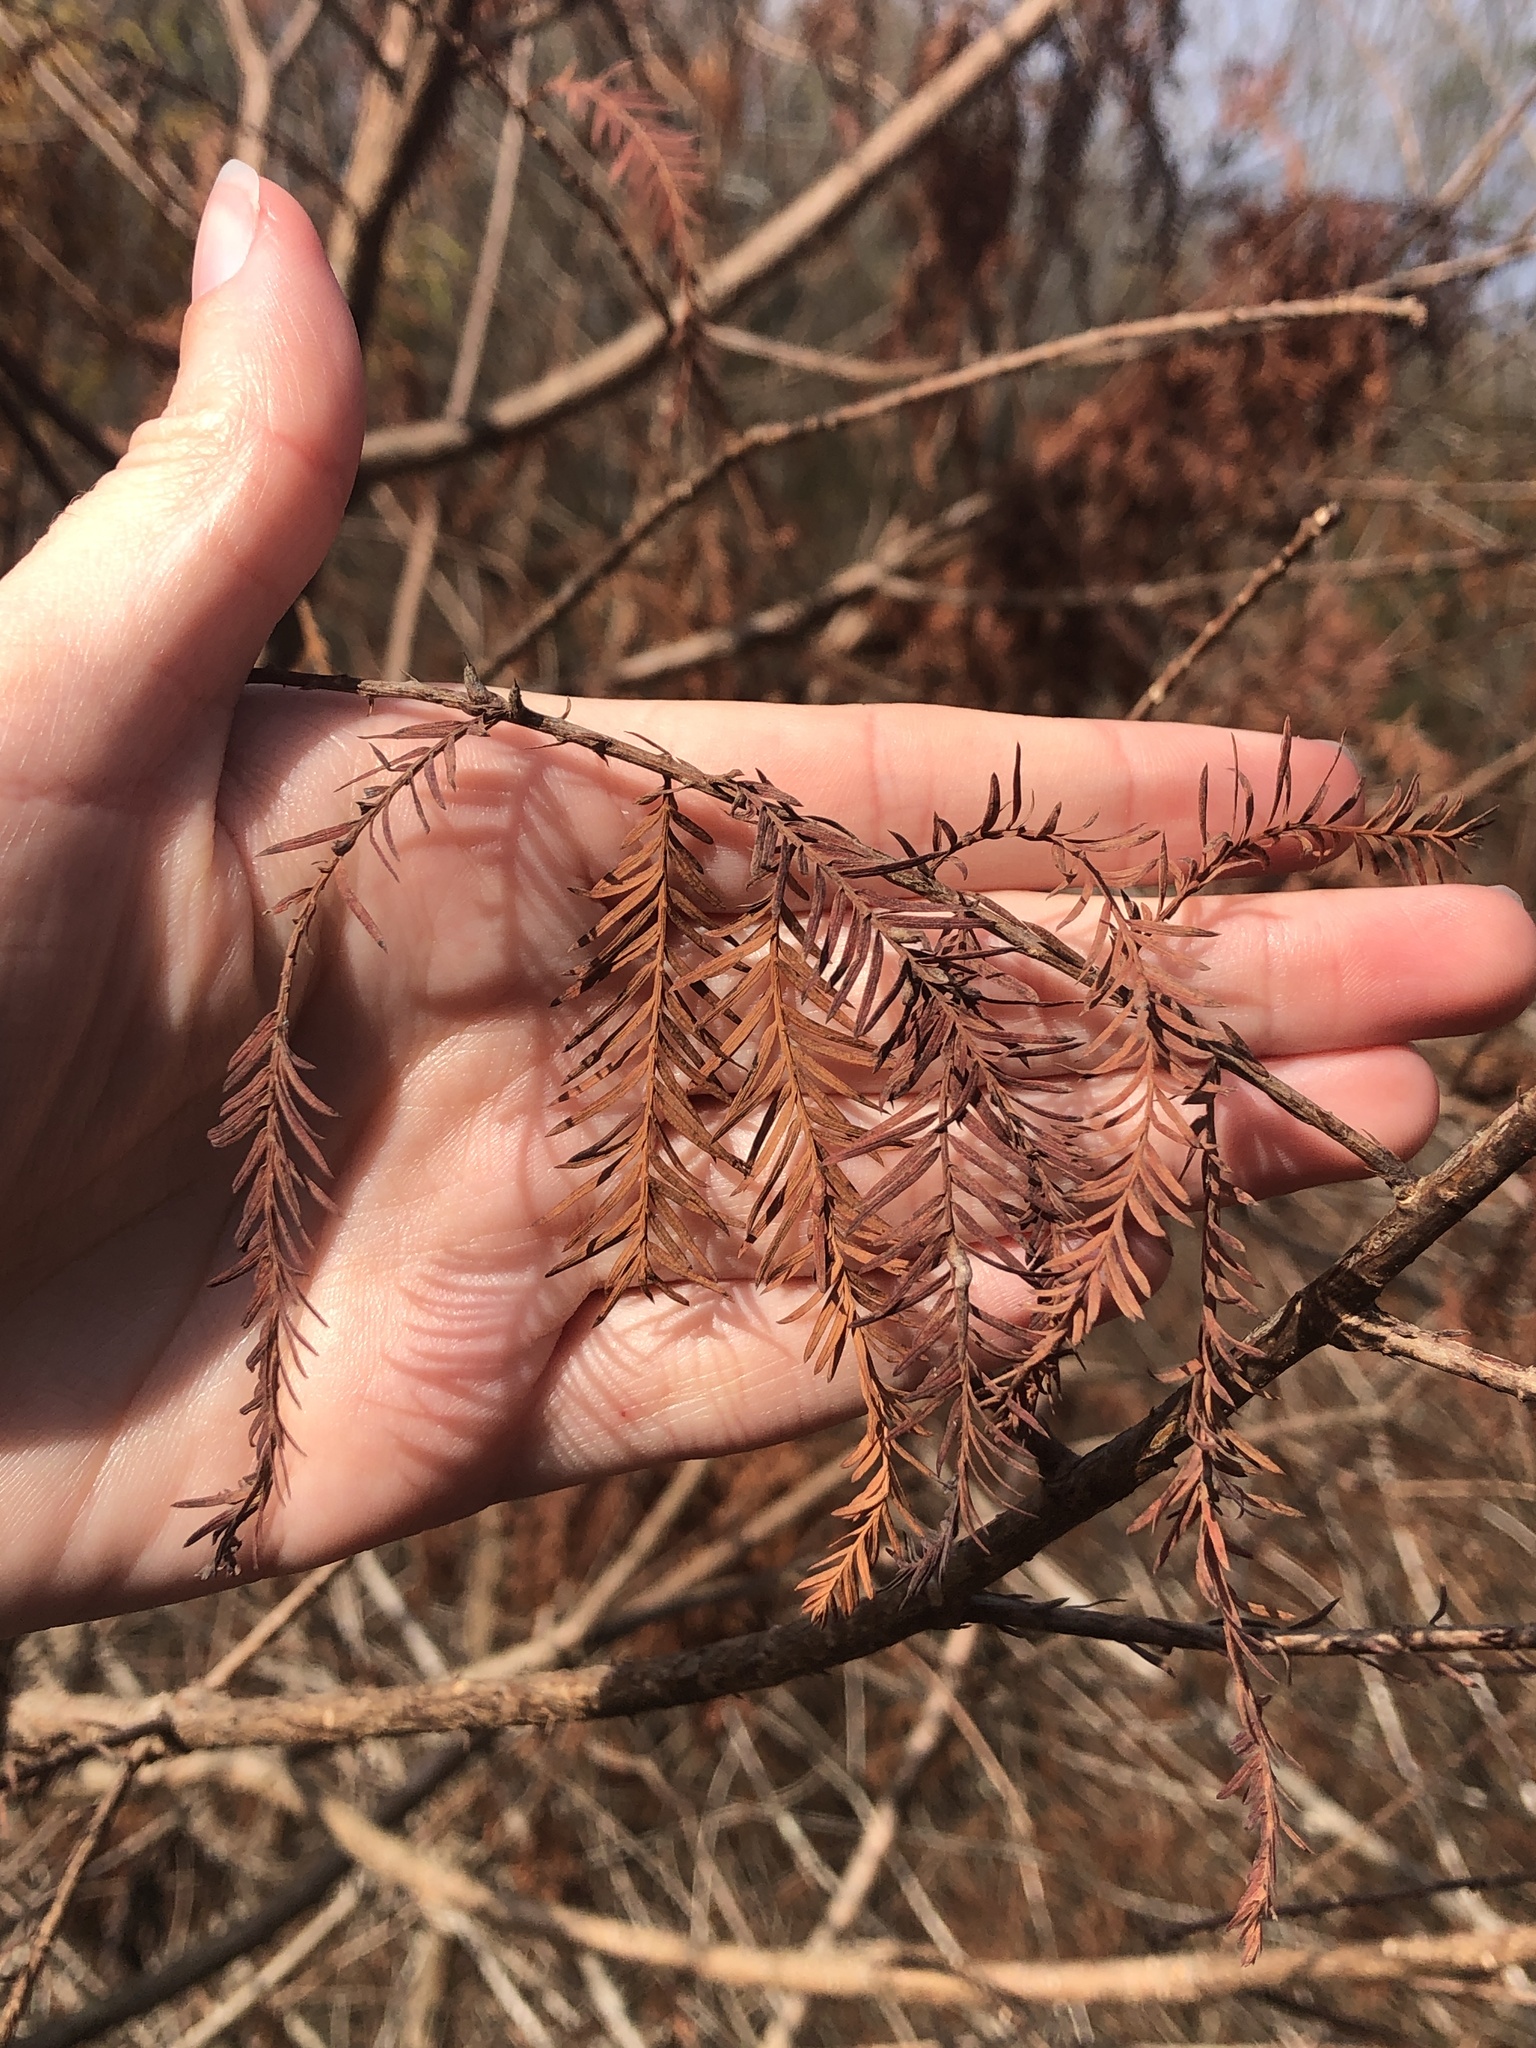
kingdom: Plantae
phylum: Tracheophyta
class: Pinopsida
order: Pinales
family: Cupressaceae
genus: Taxodium
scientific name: Taxodium distichum
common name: Bald cypress
